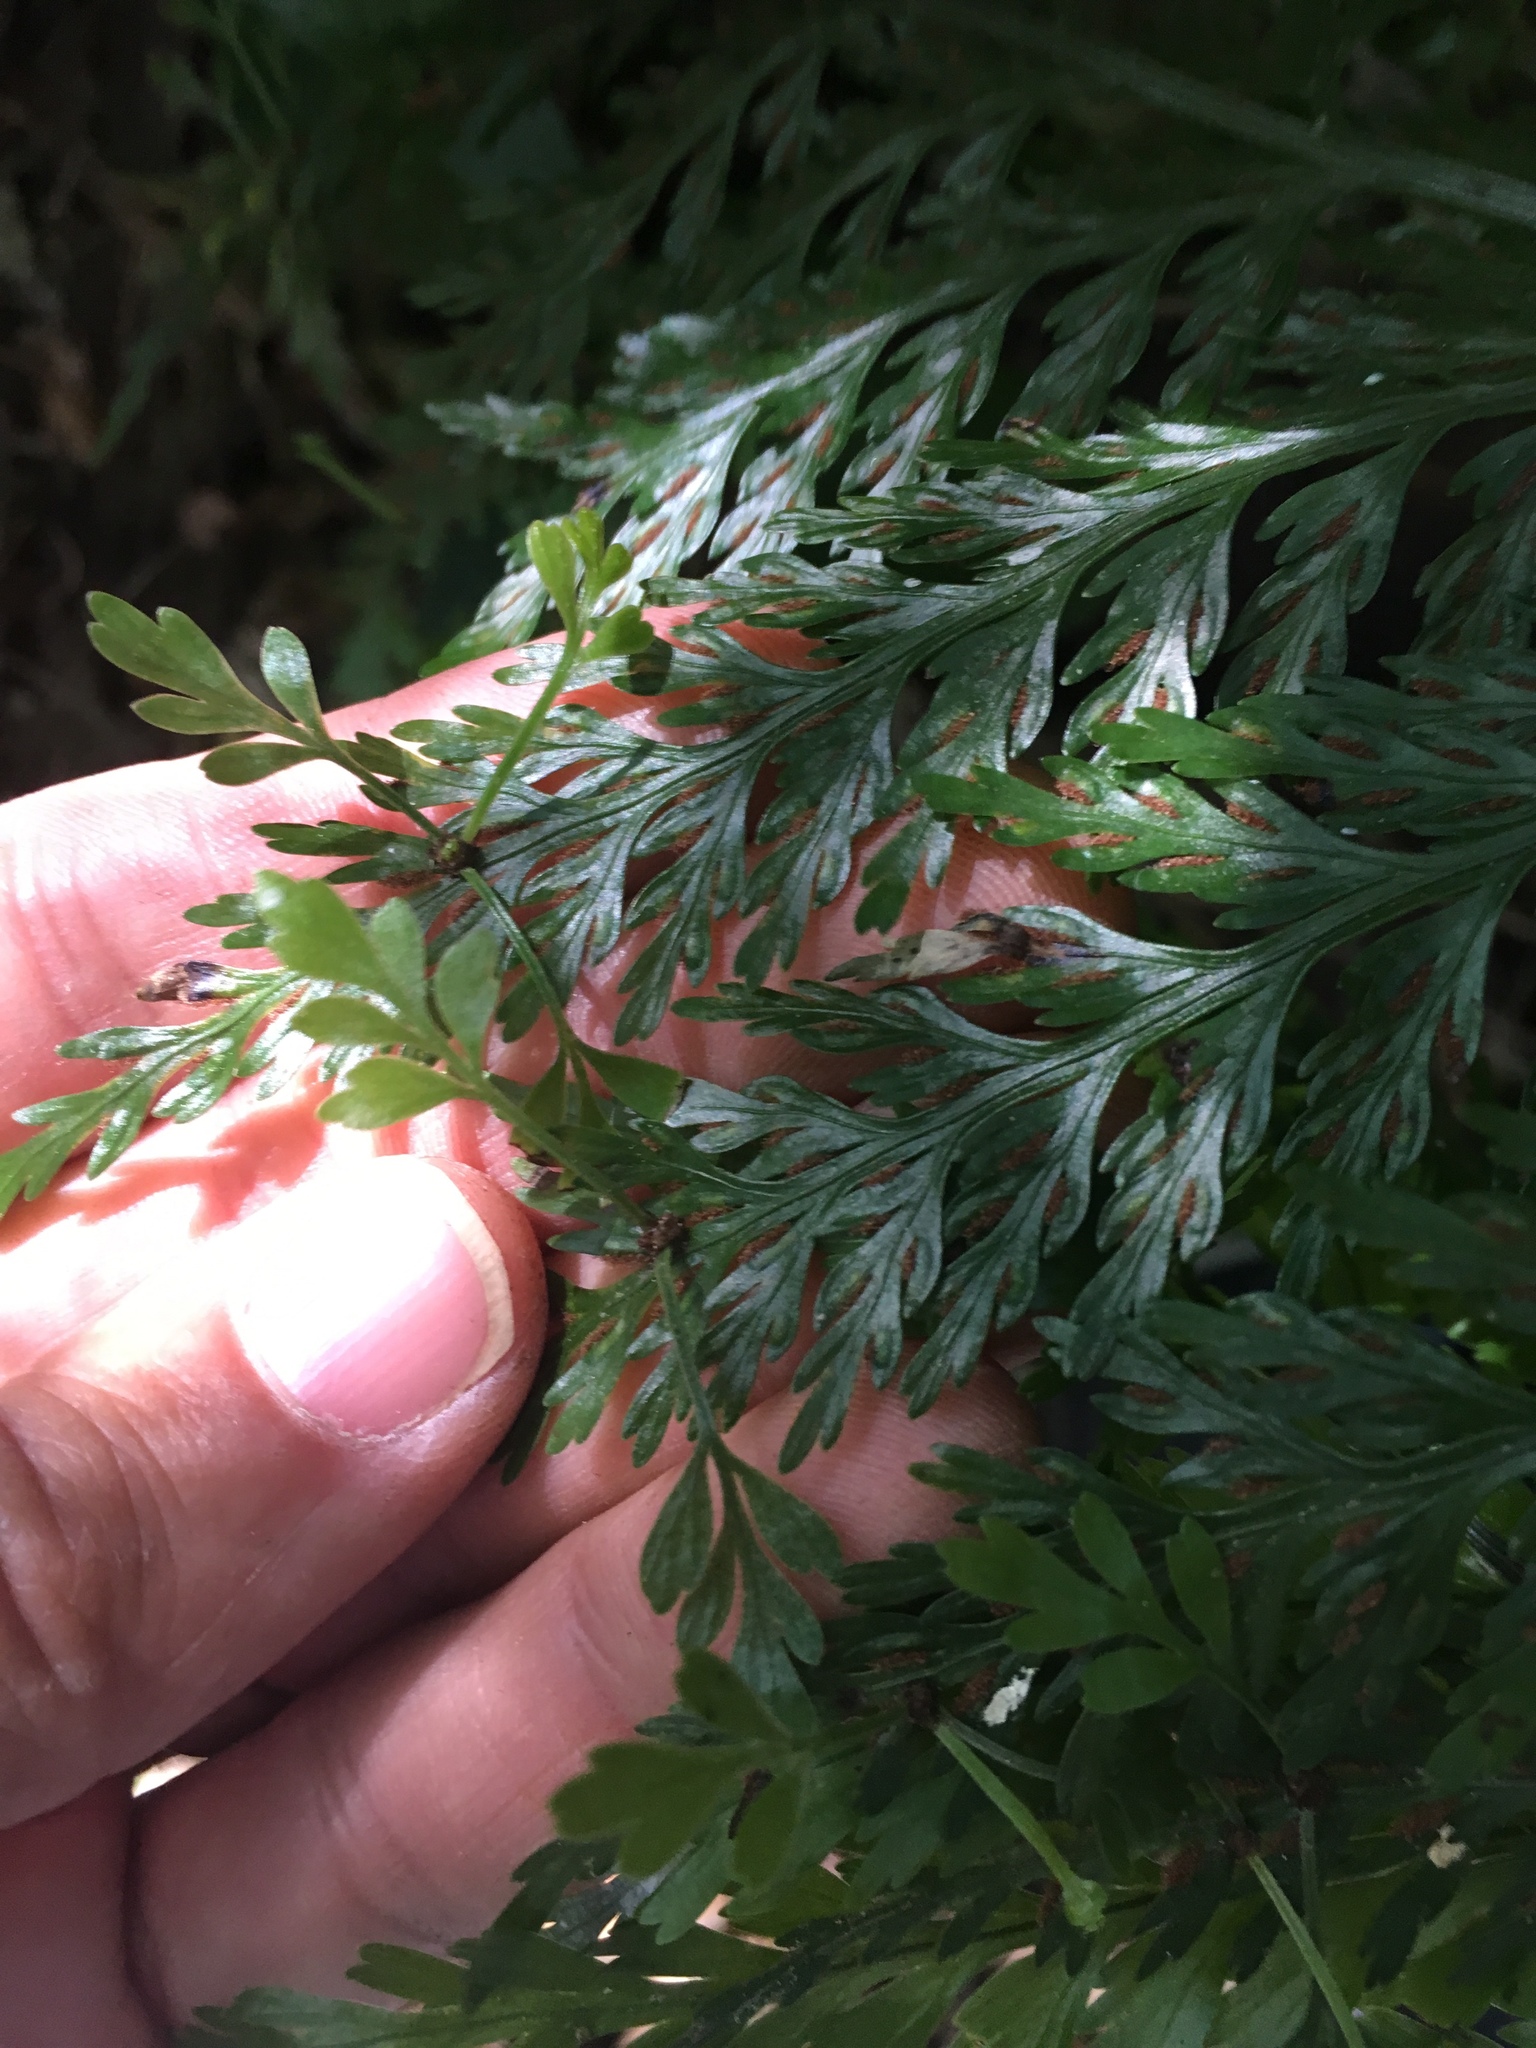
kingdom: Plantae
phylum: Tracheophyta
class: Polypodiopsida
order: Polypodiales
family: Aspleniaceae
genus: Asplenium
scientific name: Asplenium lucrosum
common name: False hen-and-chickens fern
